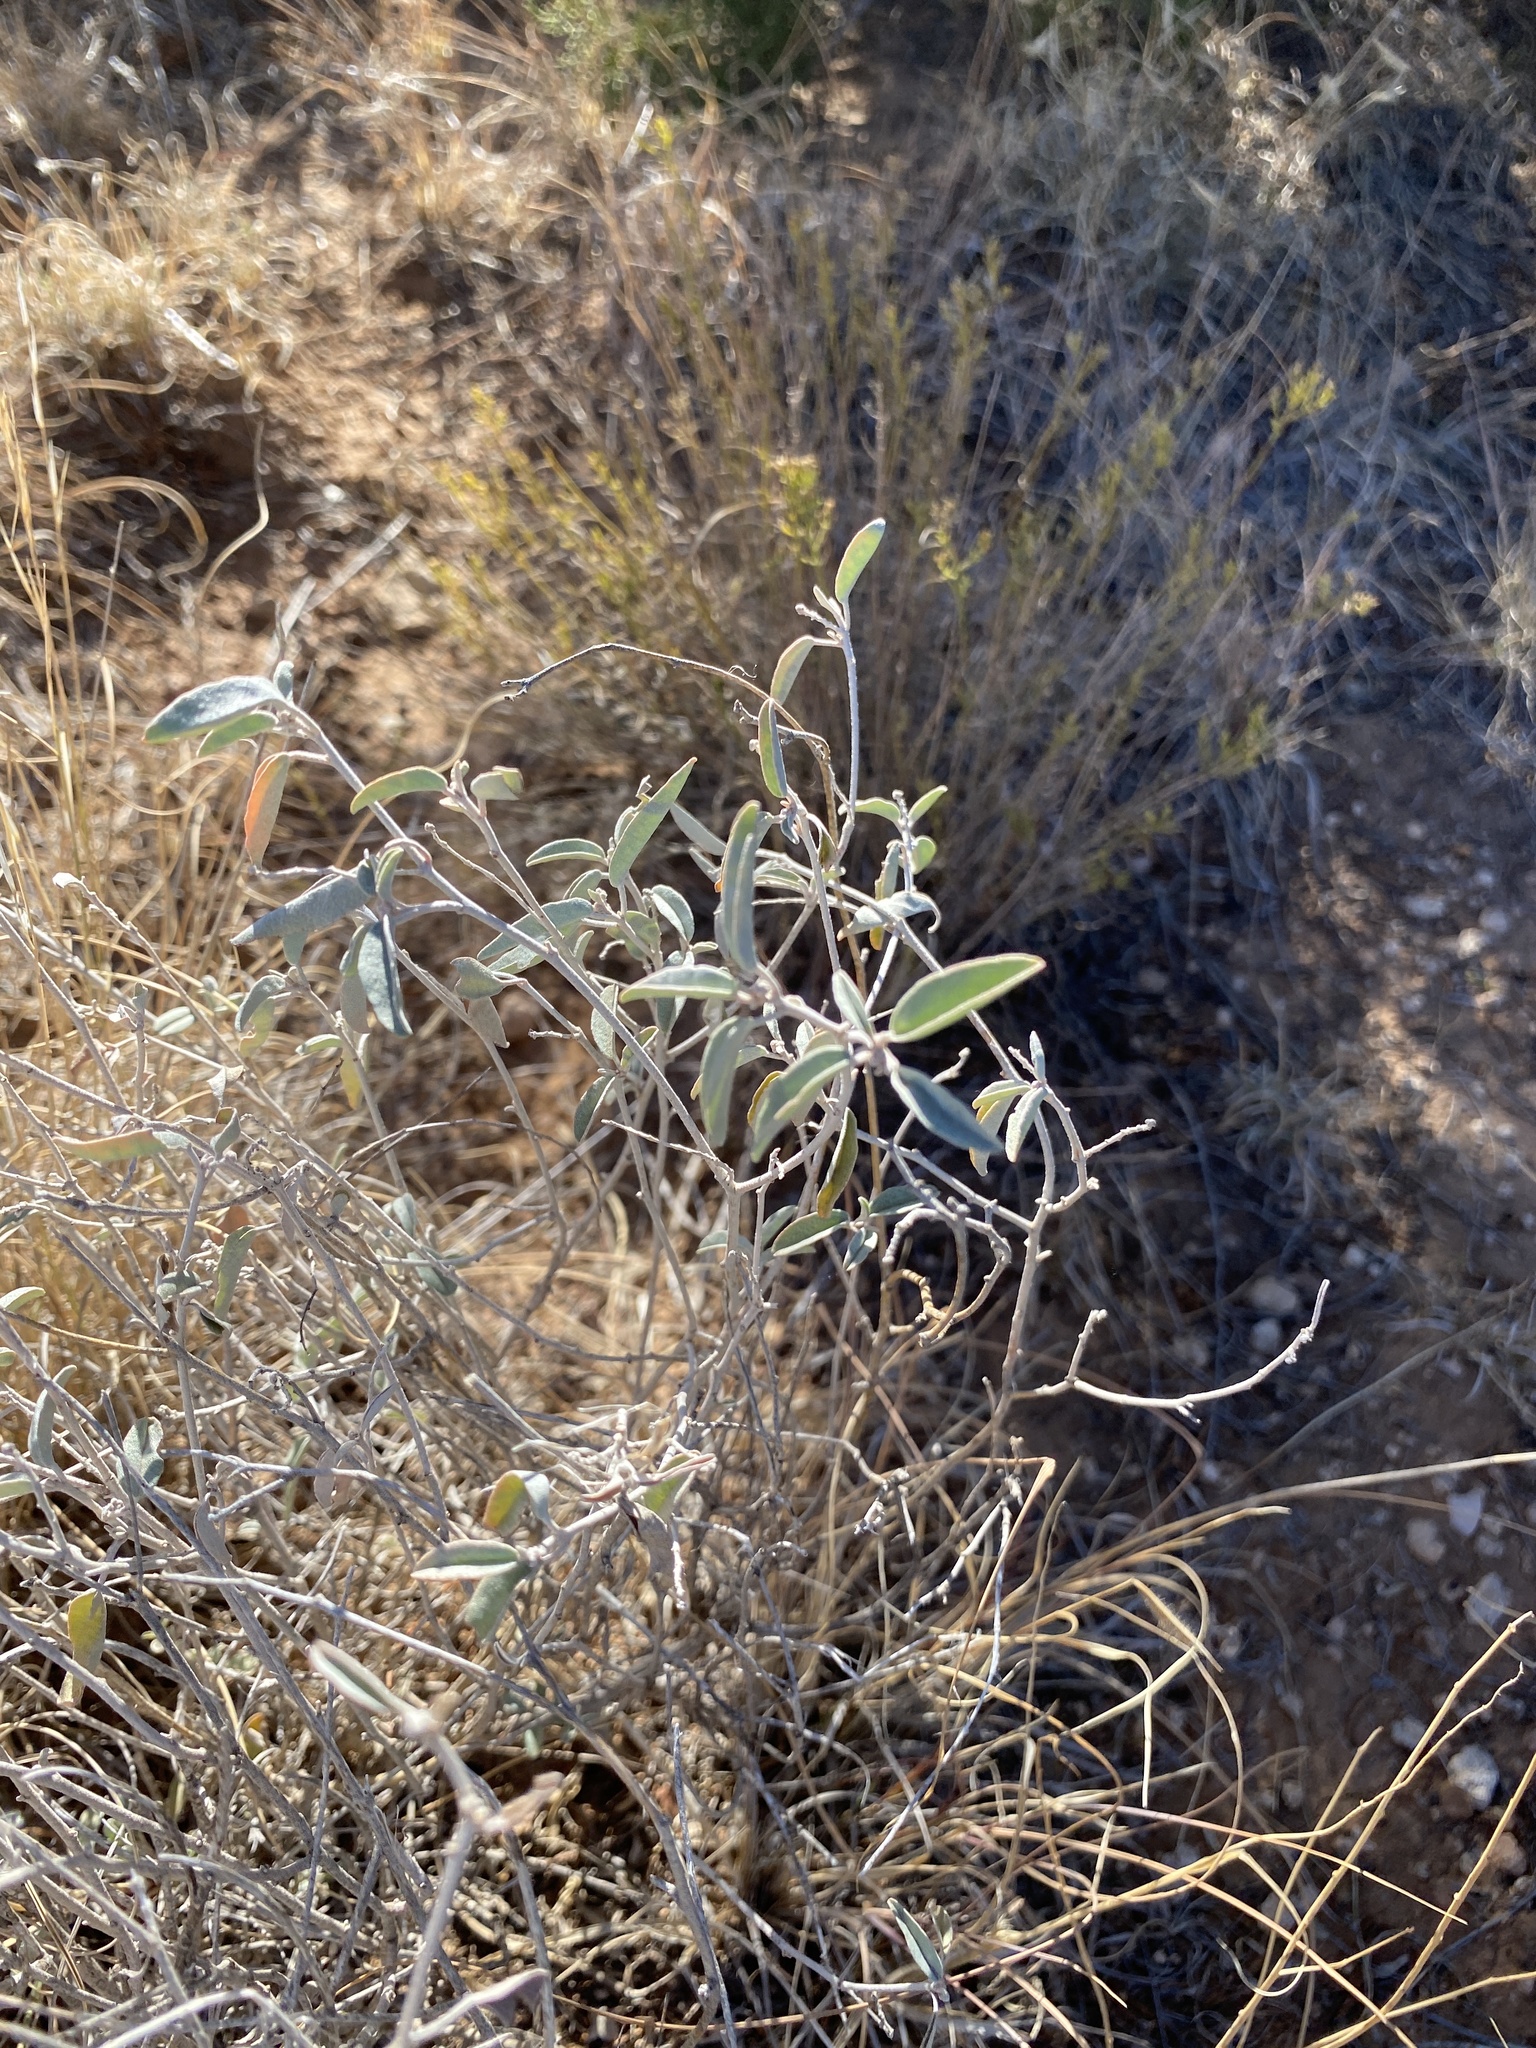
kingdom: Plantae
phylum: Tracheophyta
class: Magnoliopsida
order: Malpighiales
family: Euphorbiaceae
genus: Croton
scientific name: Croton dioicus
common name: Grassland croton
